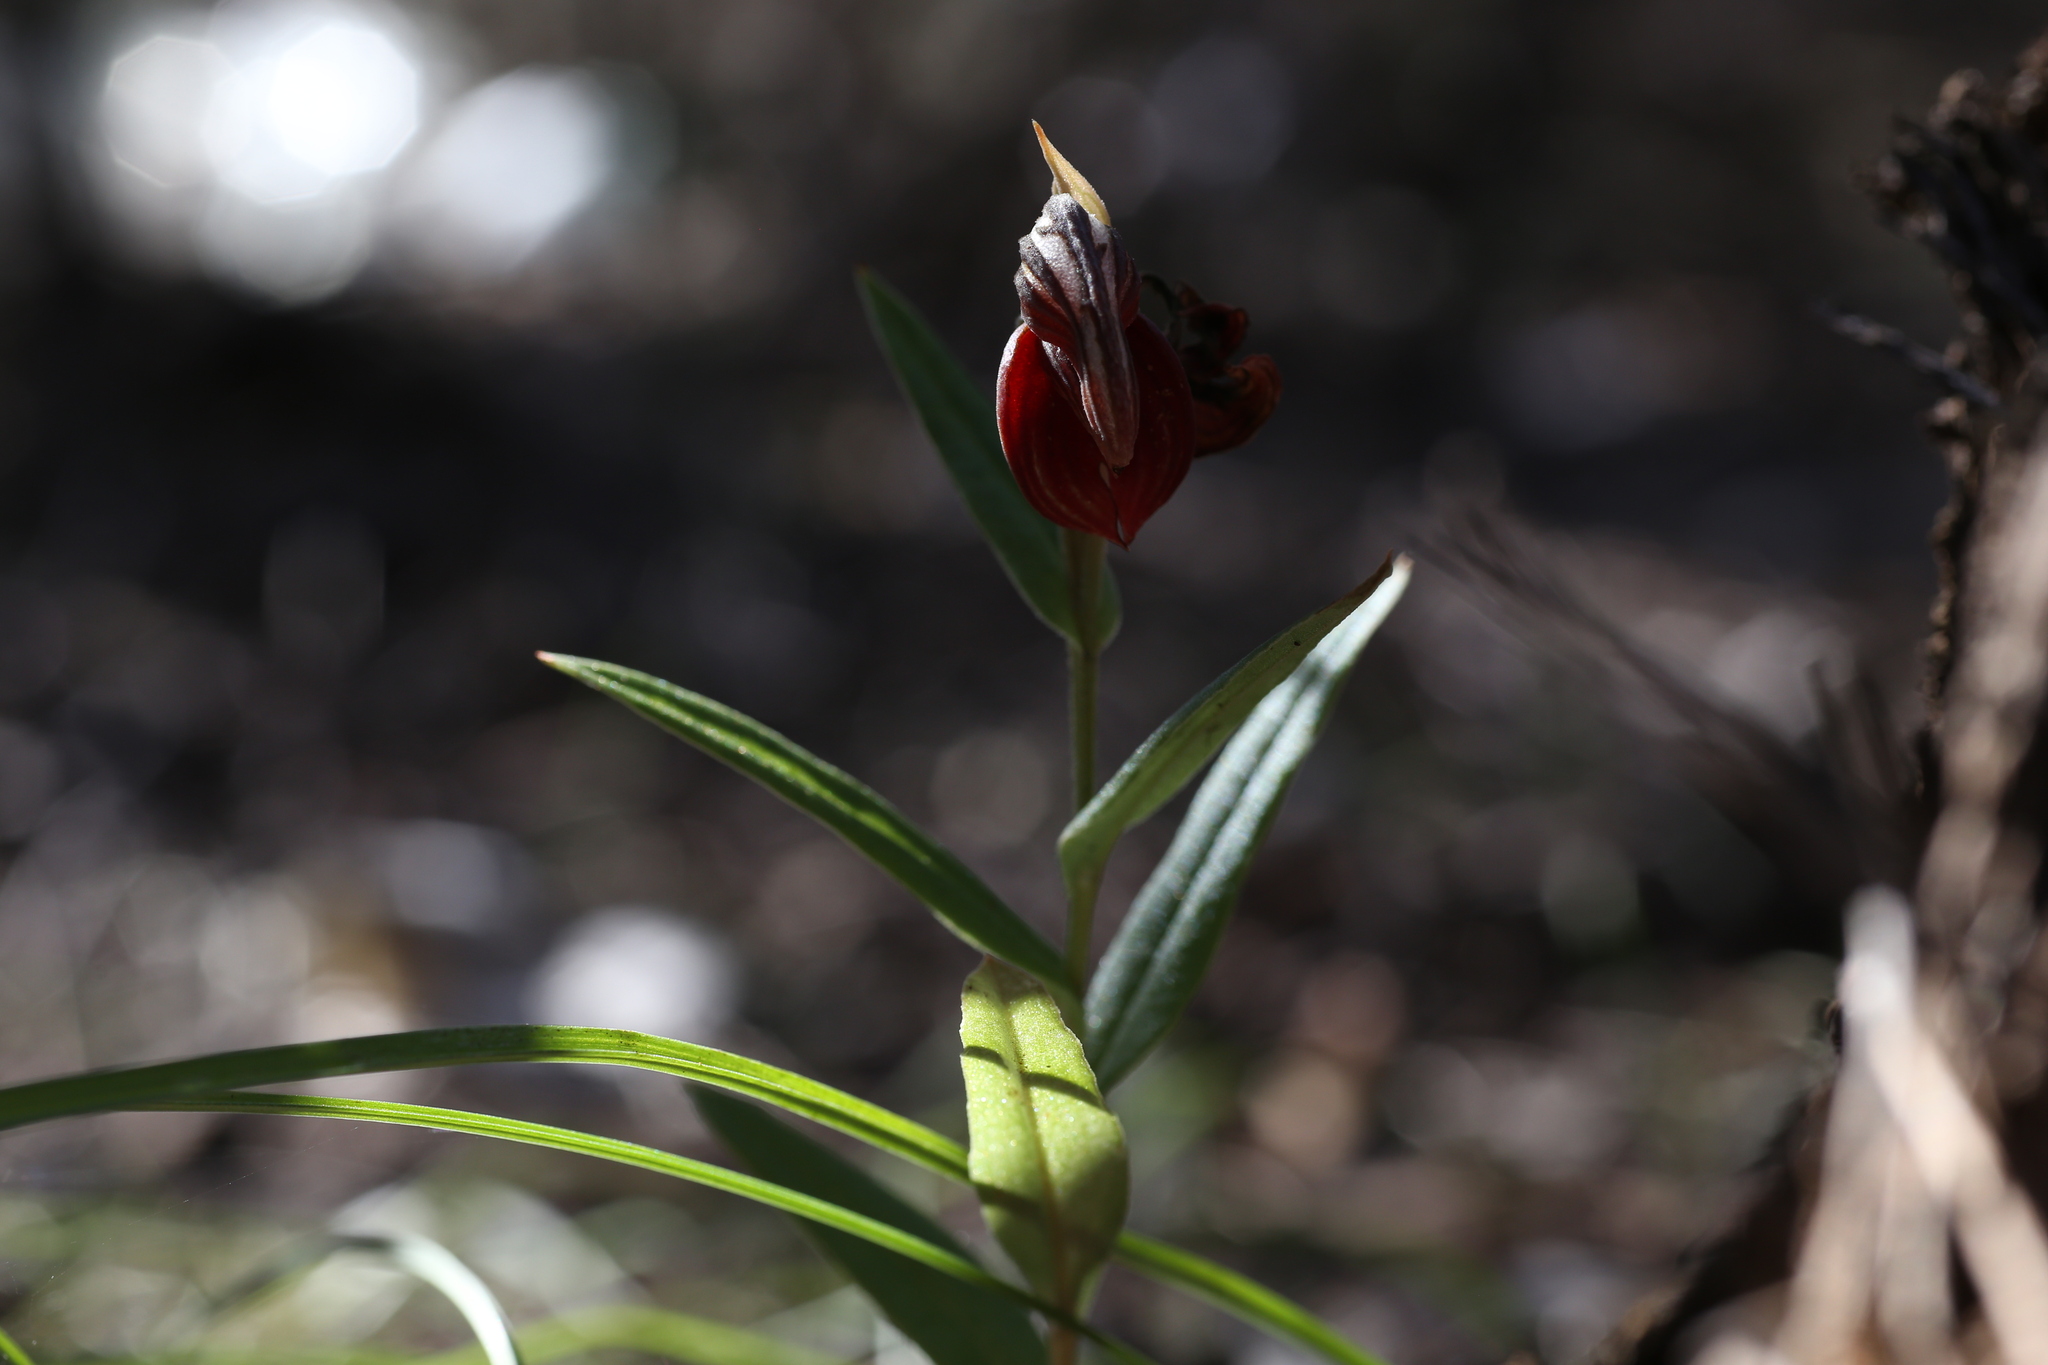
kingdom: Plantae
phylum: Tracheophyta
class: Liliopsida
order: Asparagales
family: Orchidaceae
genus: Pterostylis
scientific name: Pterostylis sanguinea
